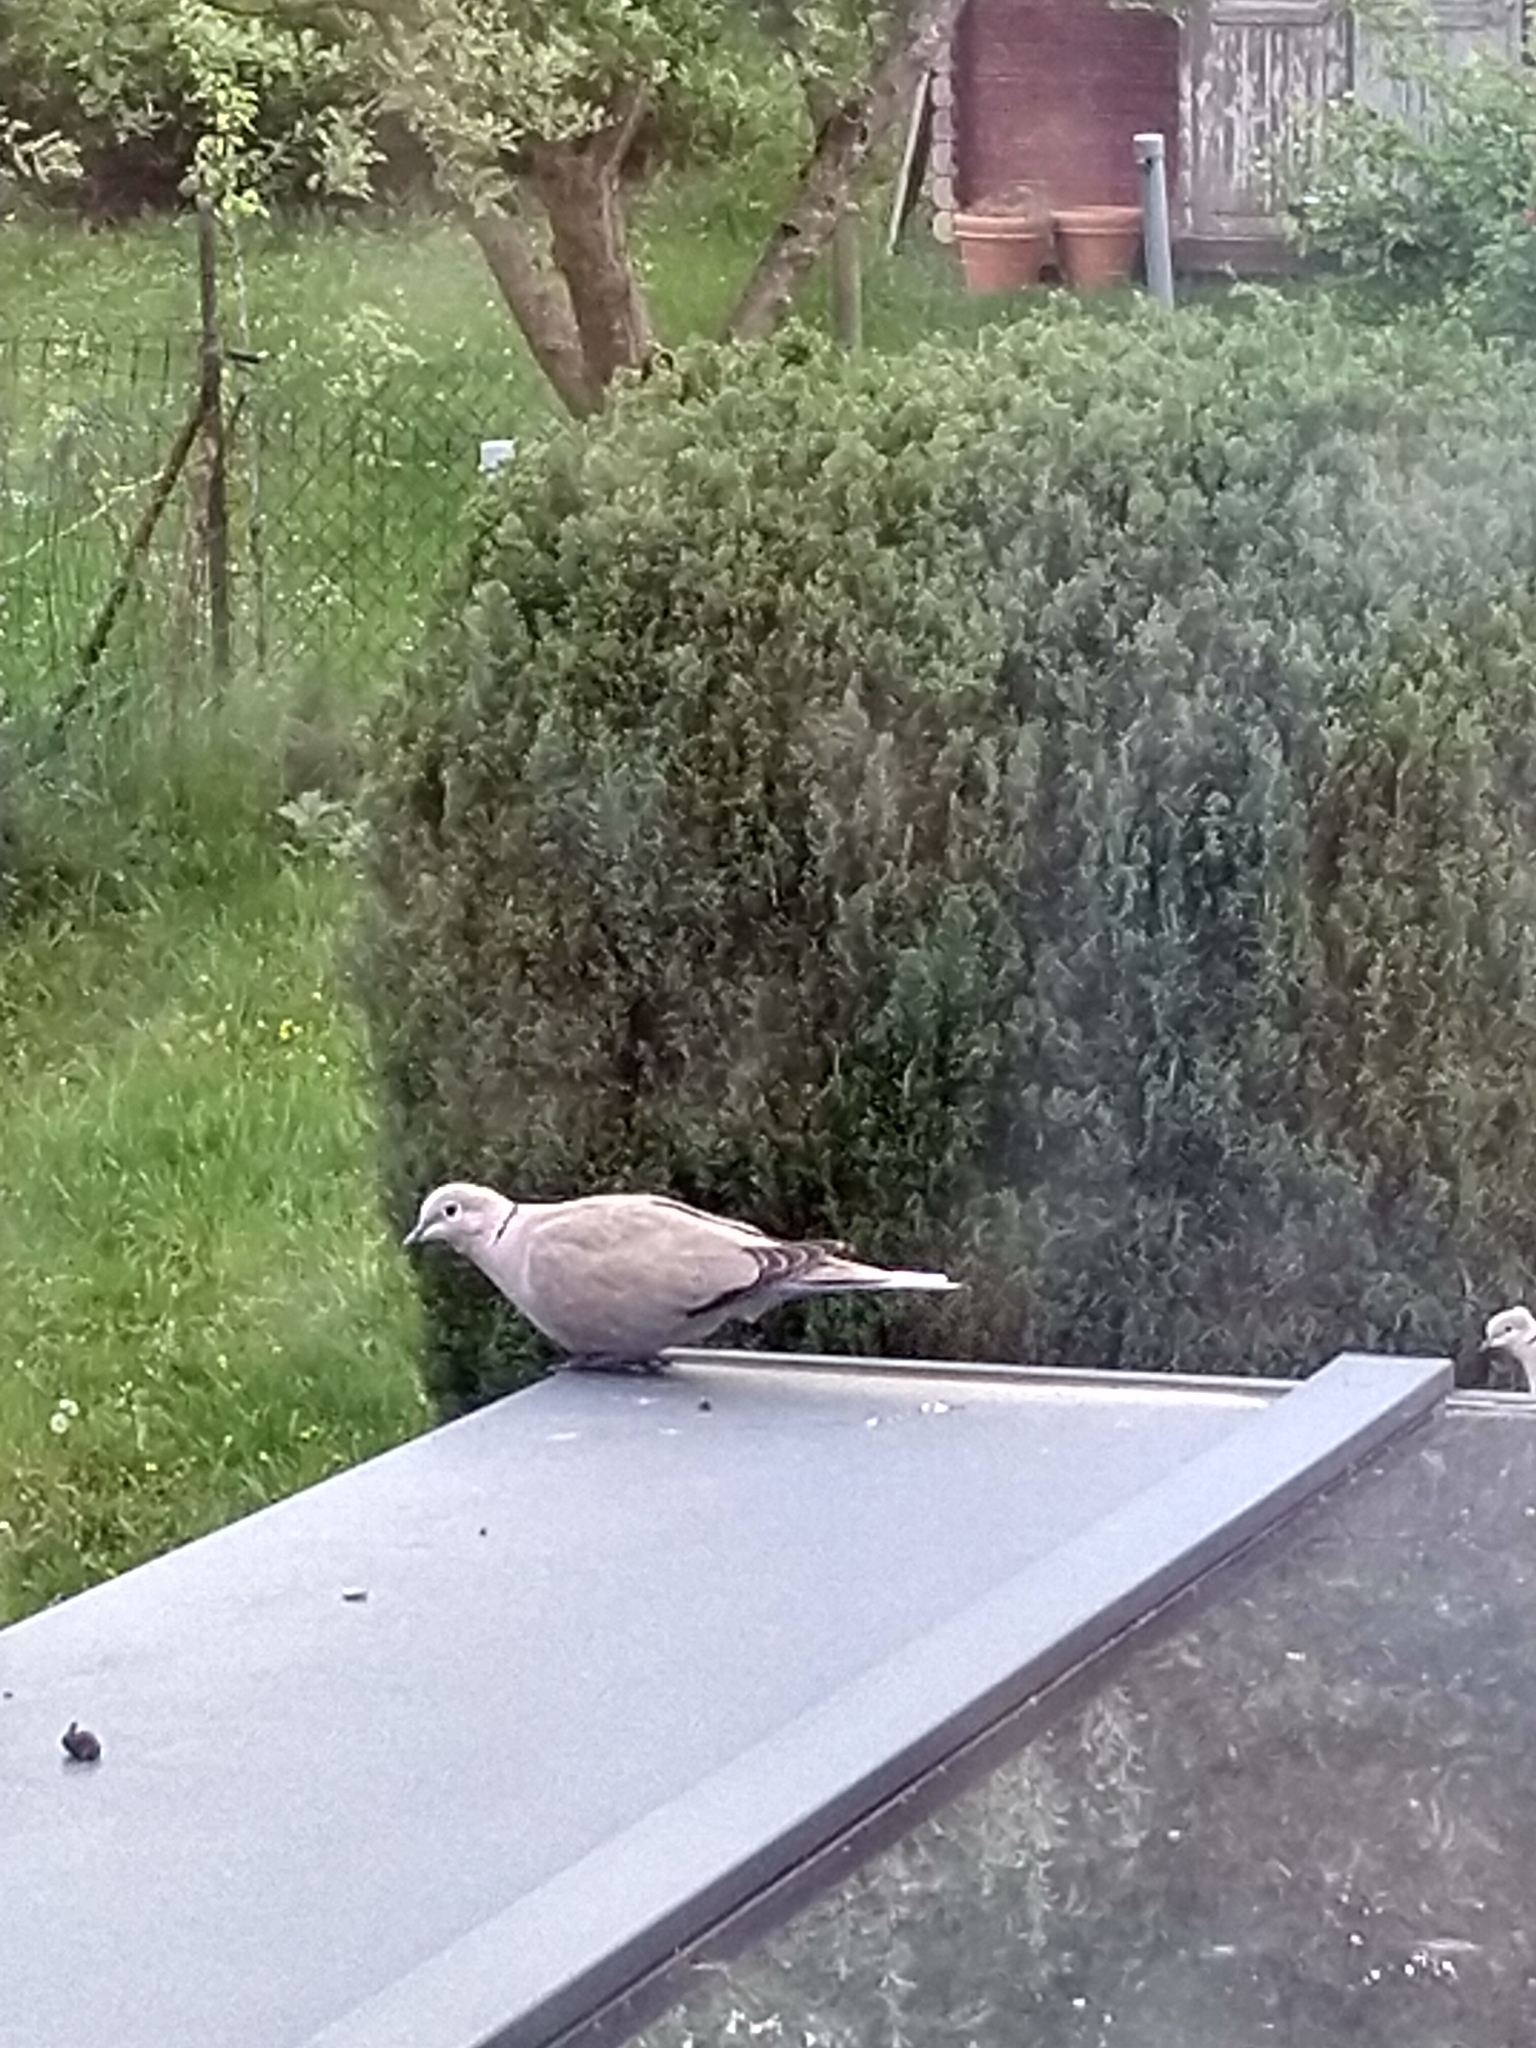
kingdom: Animalia
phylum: Chordata
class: Aves
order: Columbiformes
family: Columbidae
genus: Streptopelia
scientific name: Streptopelia decaocto
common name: Eurasian collared dove
